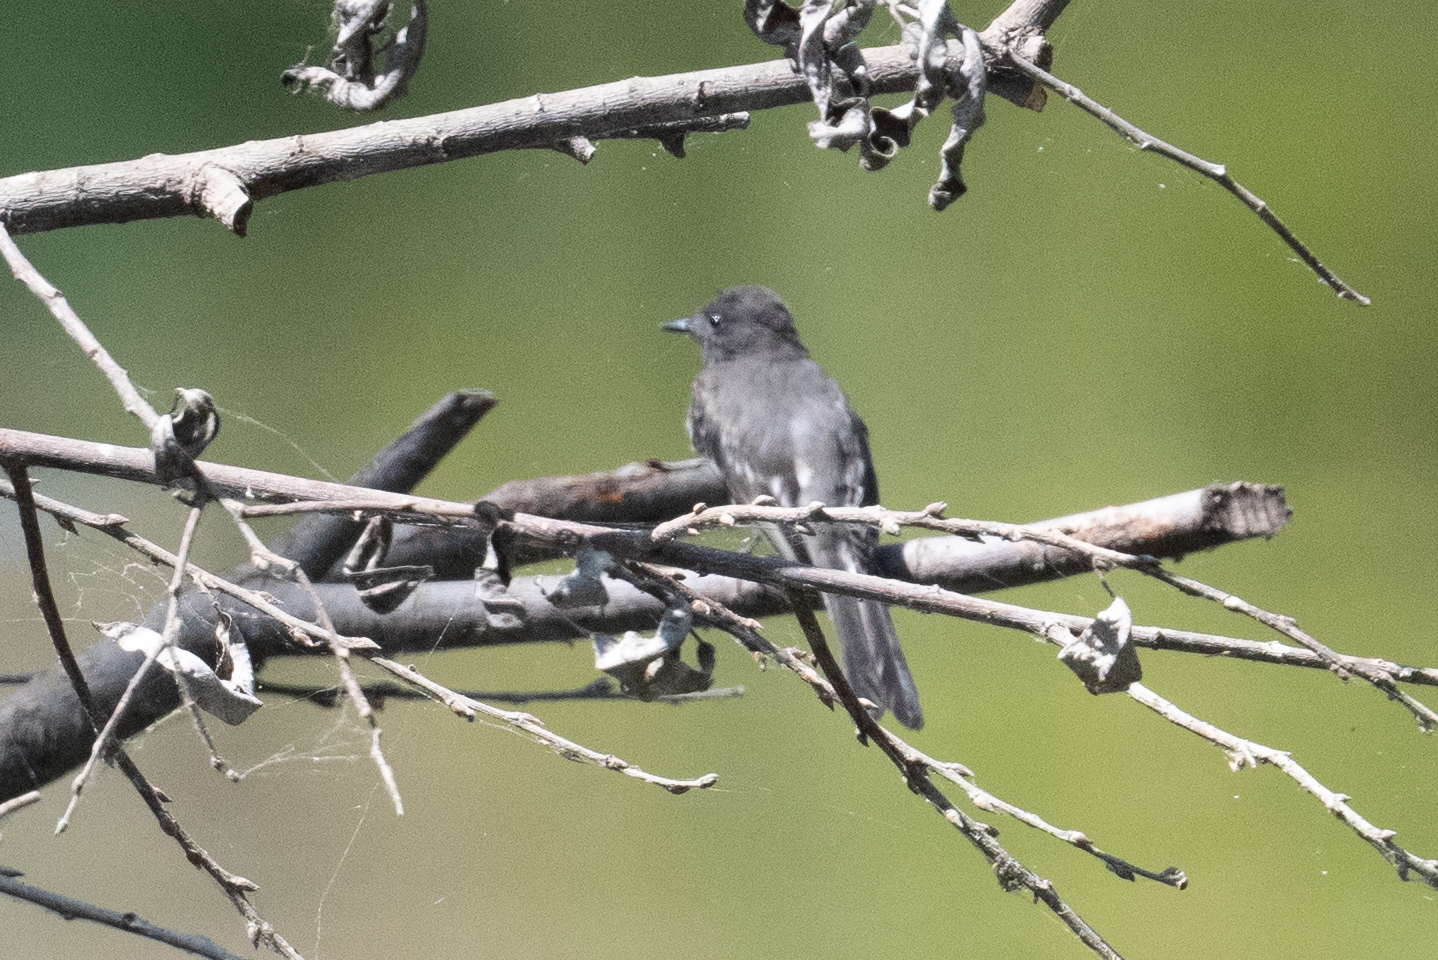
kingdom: Animalia
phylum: Chordata
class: Aves
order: Passeriformes
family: Tyrannidae
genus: Sayornis
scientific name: Sayornis nigricans
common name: Black phoebe
